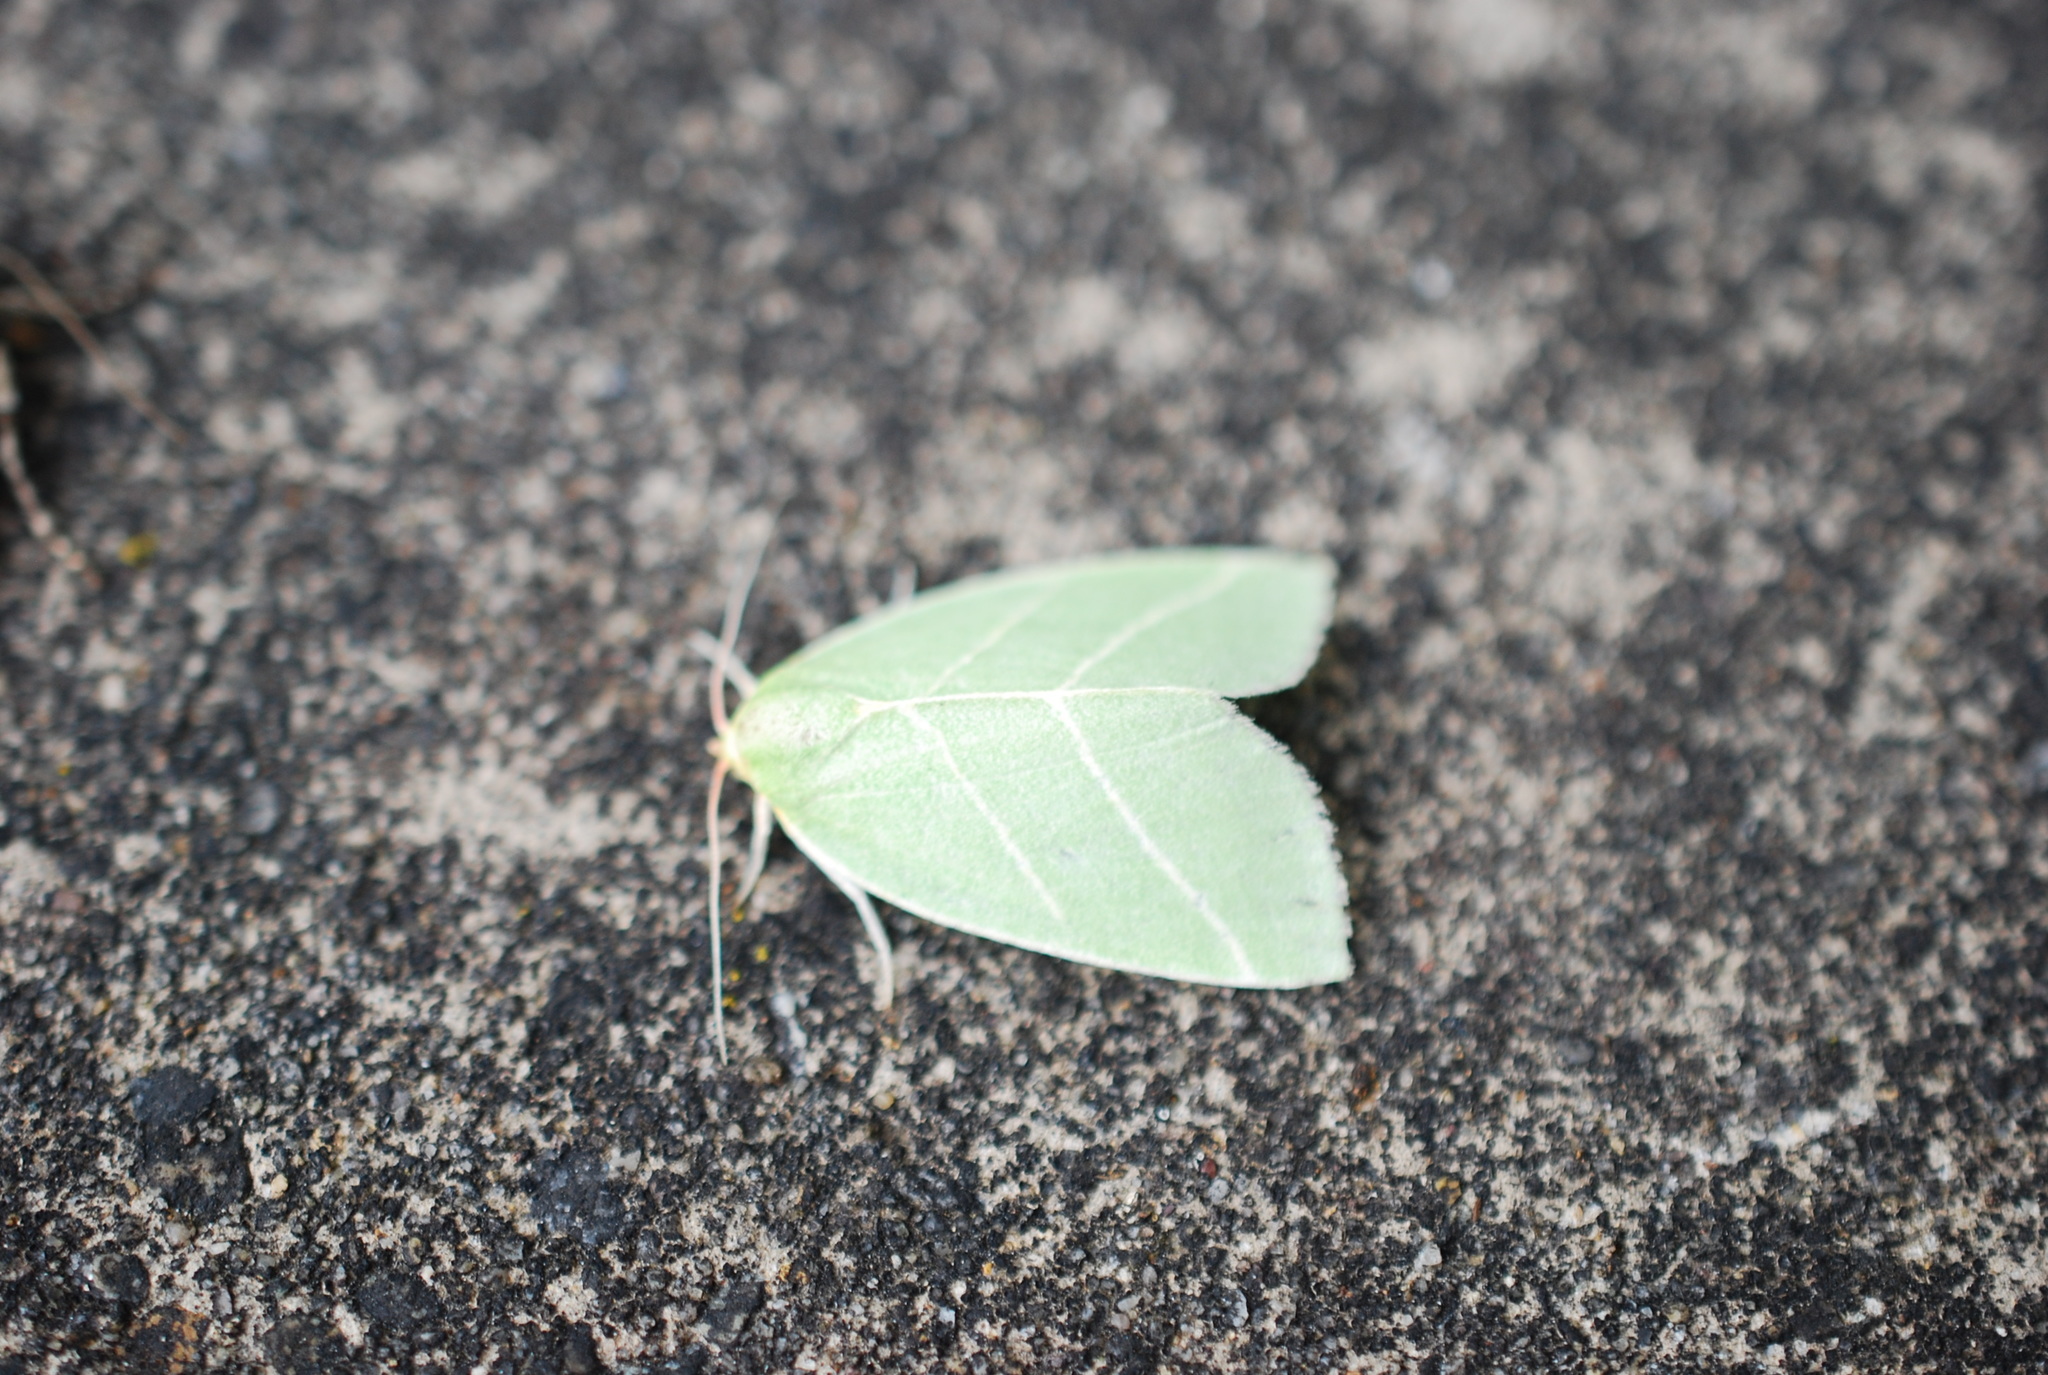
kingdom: Animalia
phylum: Arthropoda
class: Insecta
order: Lepidoptera
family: Nolidae
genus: Bena
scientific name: Bena bicolorana
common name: Scarce silver-lines
